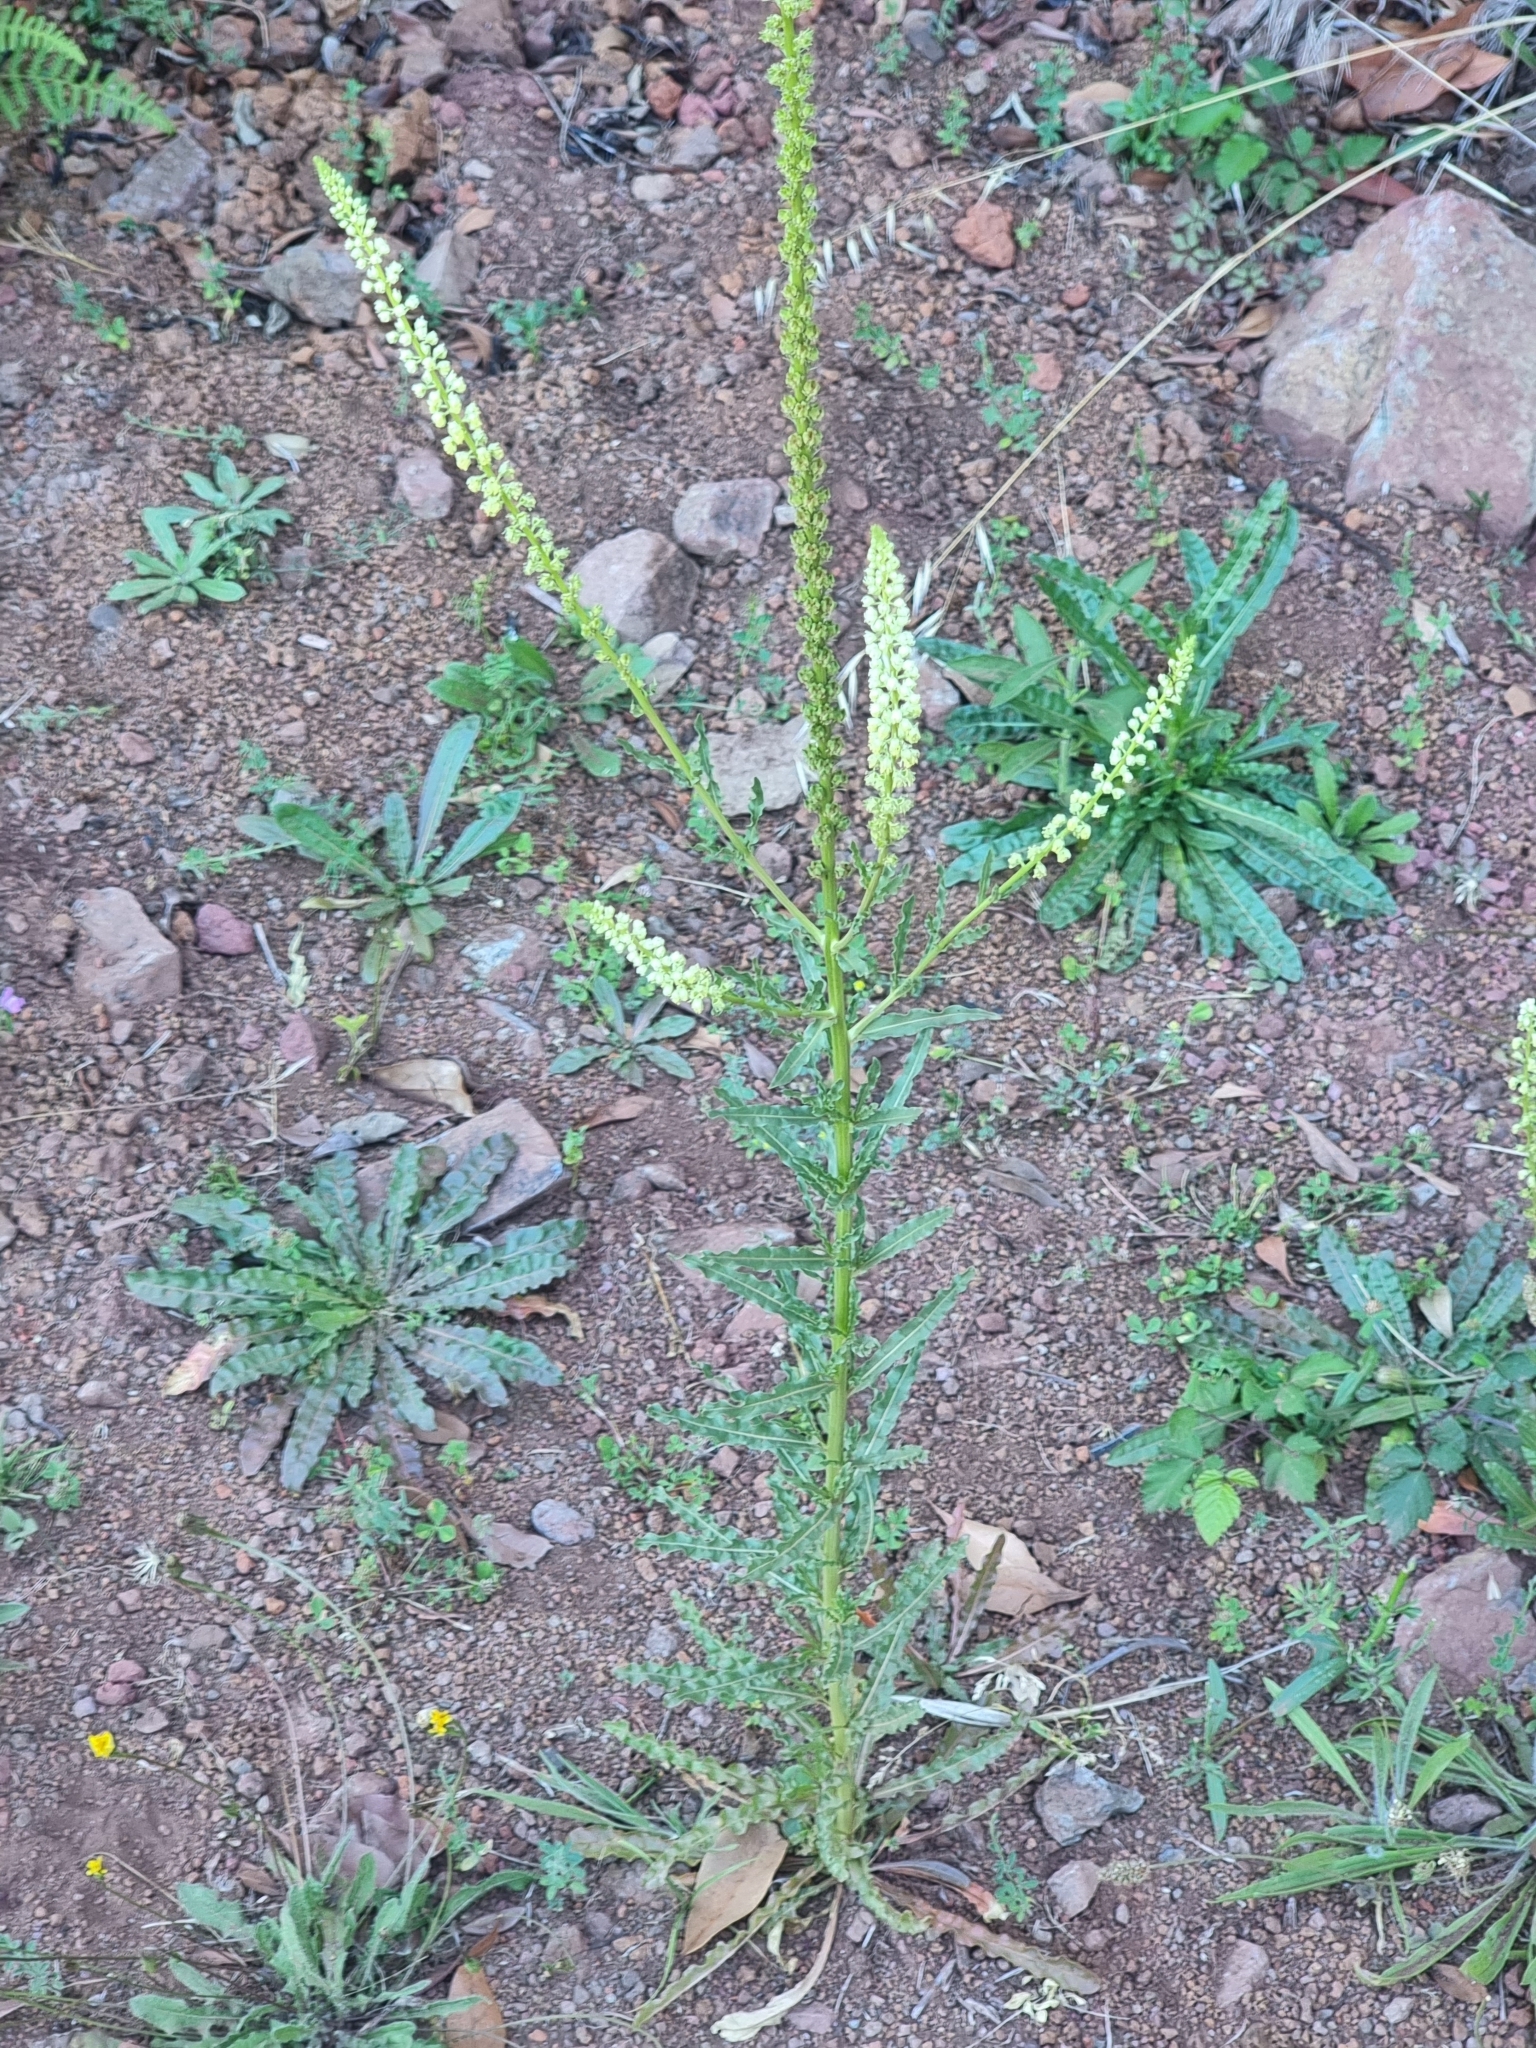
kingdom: Plantae
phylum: Tracheophyta
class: Magnoliopsida
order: Brassicales
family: Resedaceae
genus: Reseda
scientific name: Reseda luteola
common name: Weld
